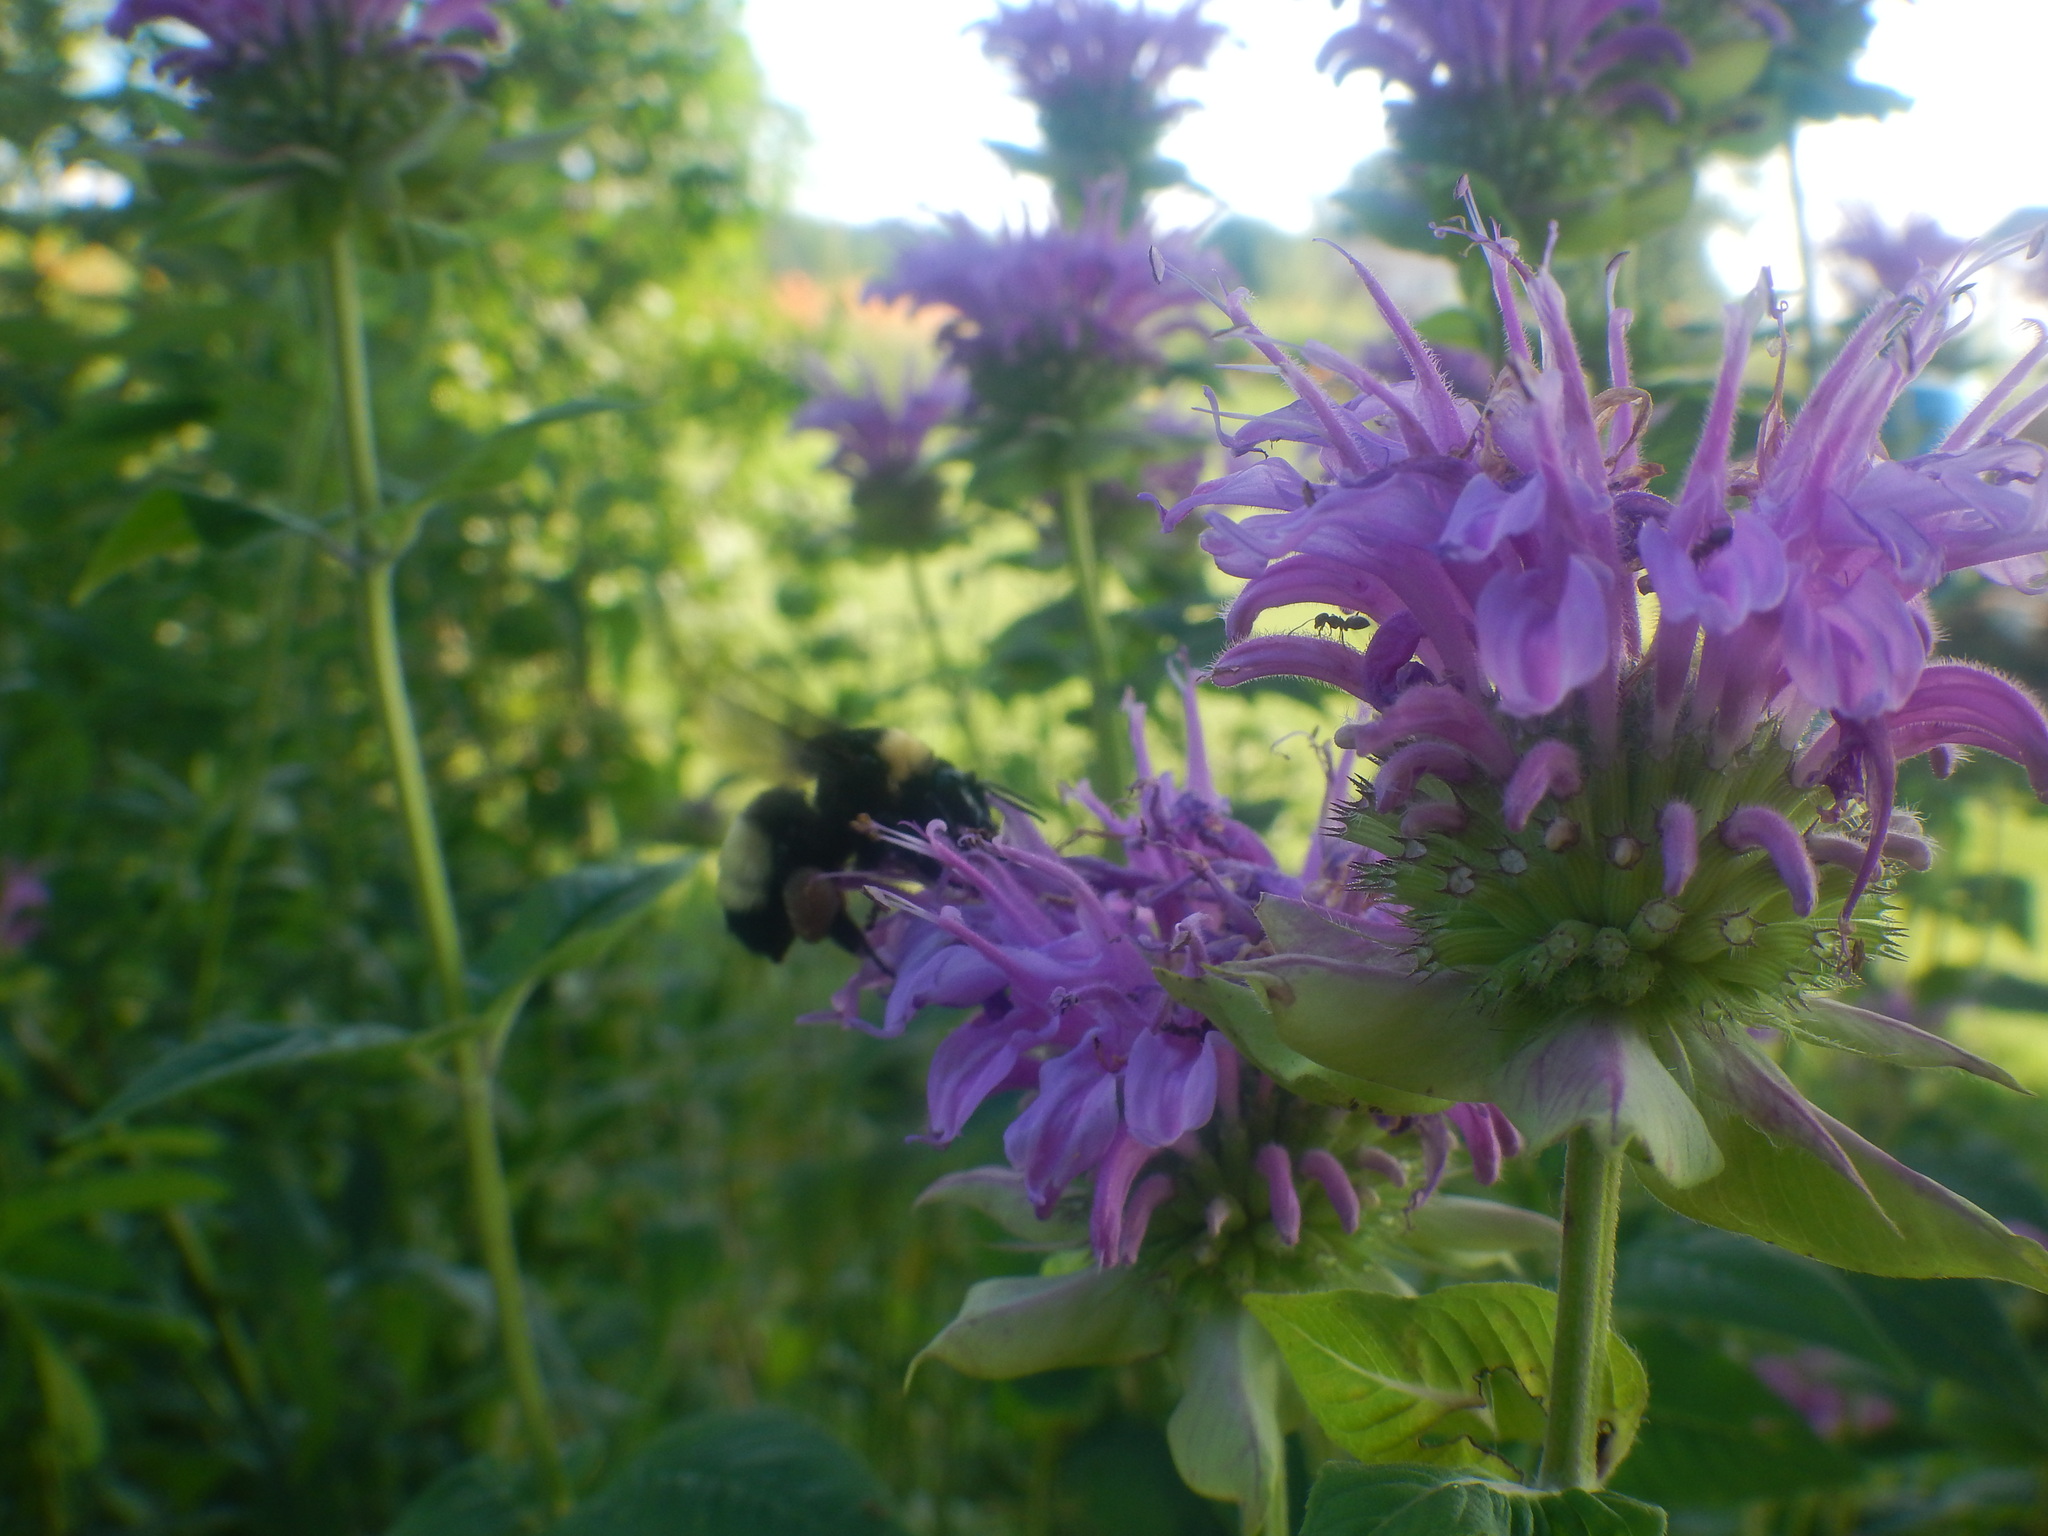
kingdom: Animalia
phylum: Arthropoda
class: Insecta
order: Hymenoptera
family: Apidae
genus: Bombus
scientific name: Bombus auricomus
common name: Black and gold bumble bee
